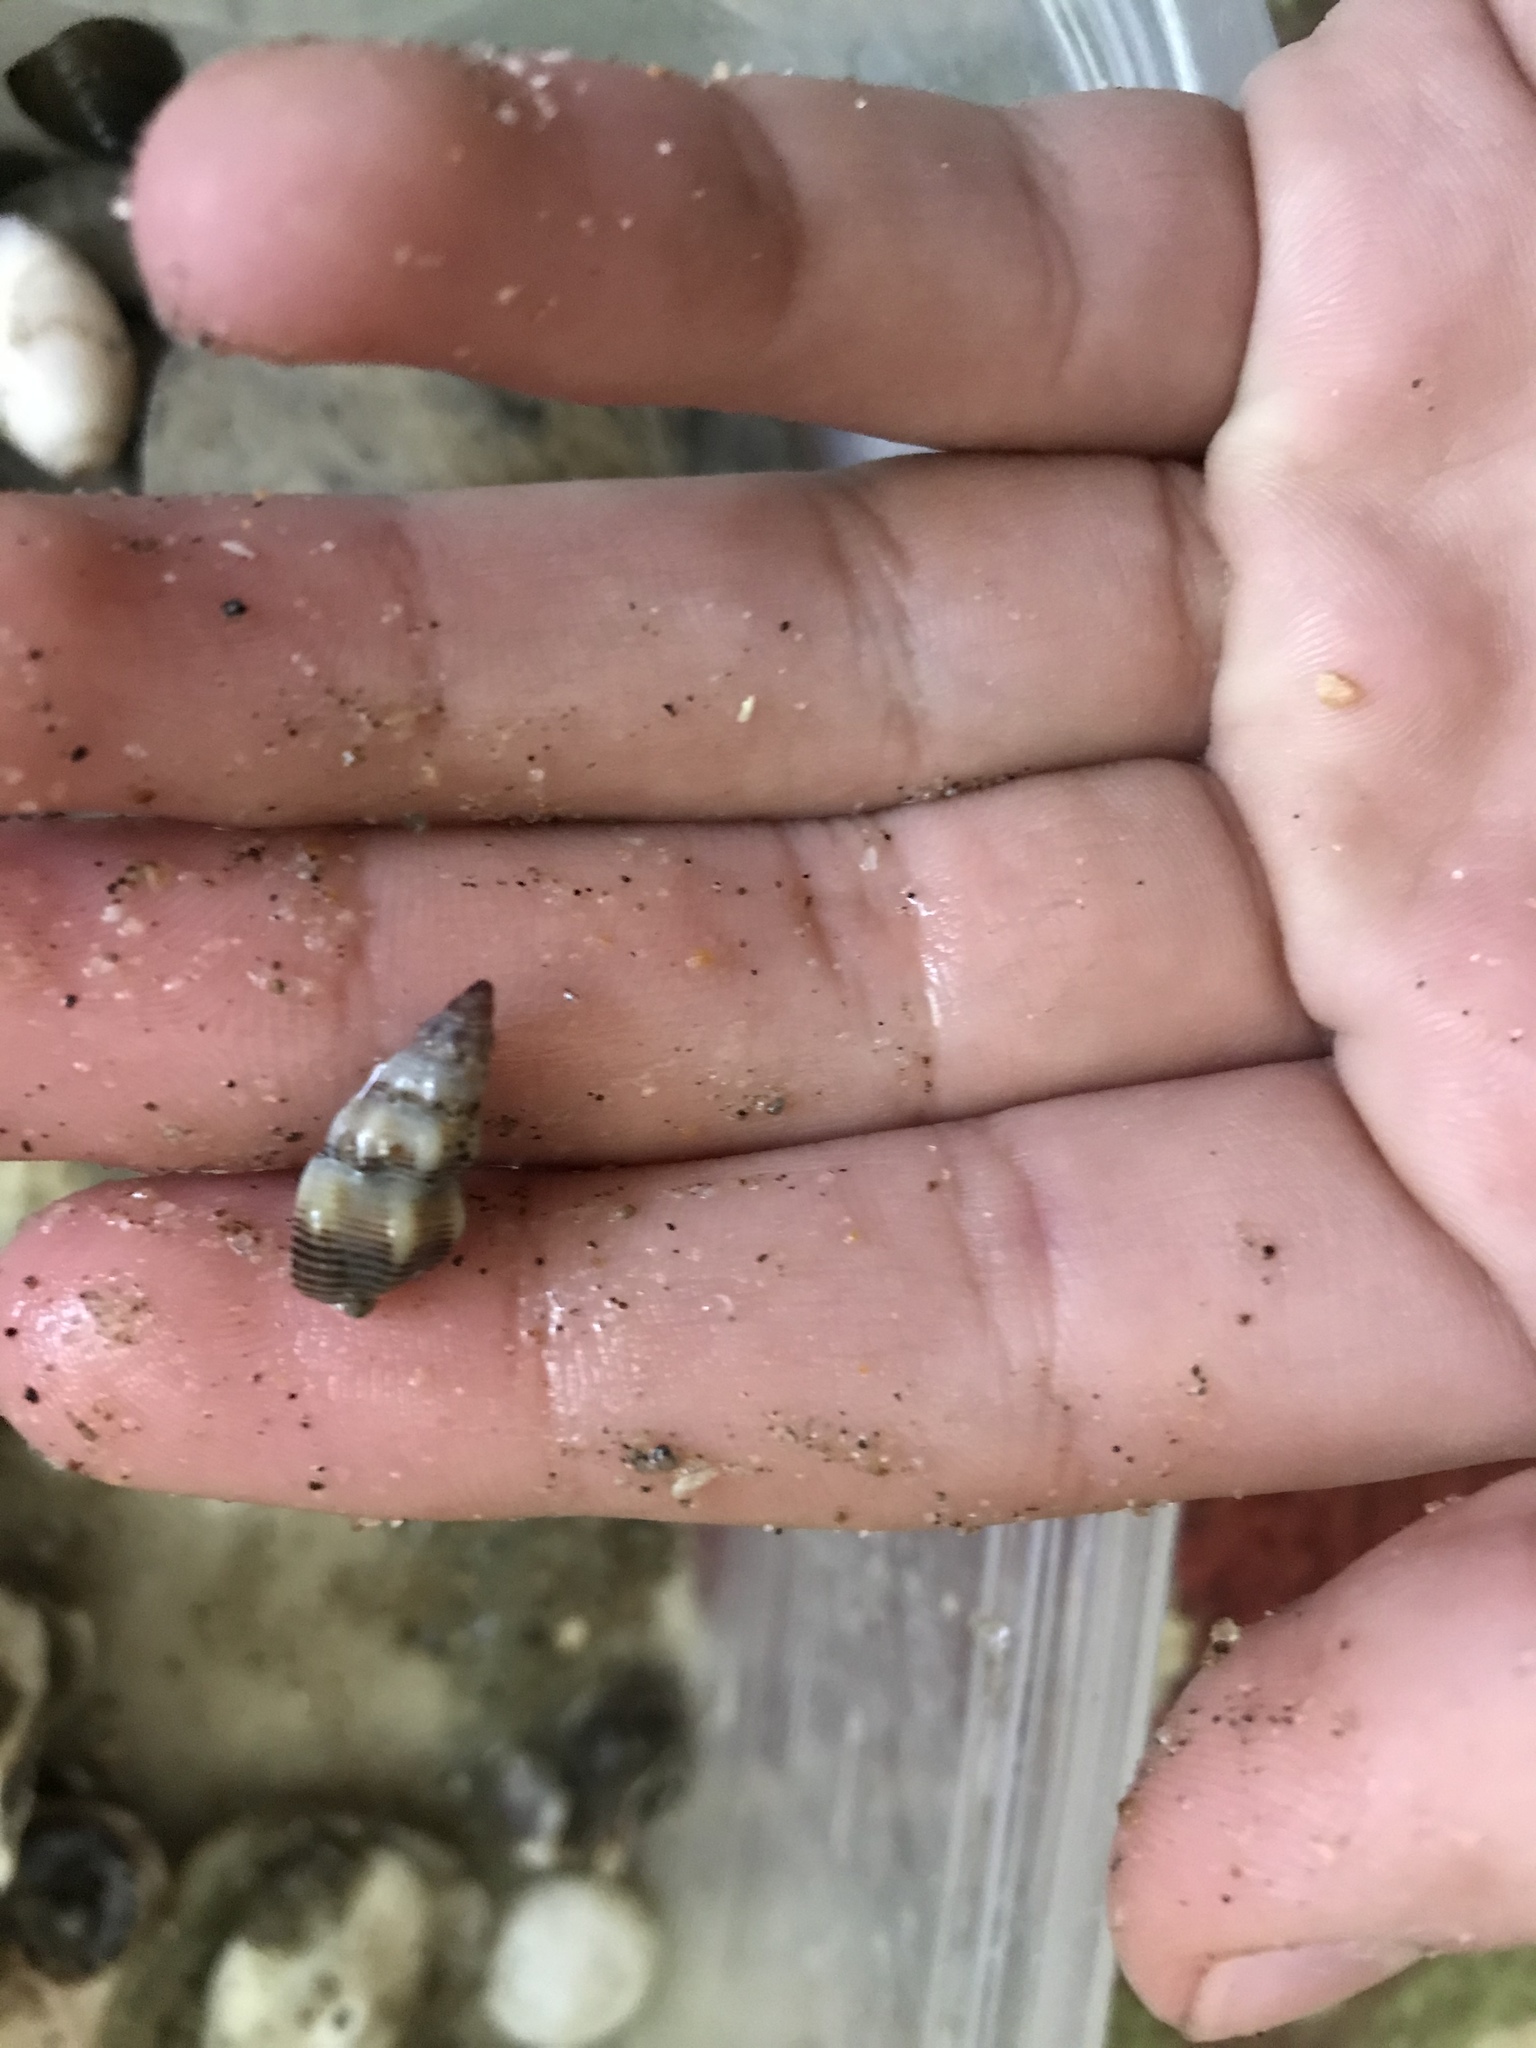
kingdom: Animalia
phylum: Mollusca
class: Gastropoda
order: Neogastropoda
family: Nassariidae
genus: Nassarius
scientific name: Nassarius mendicus
